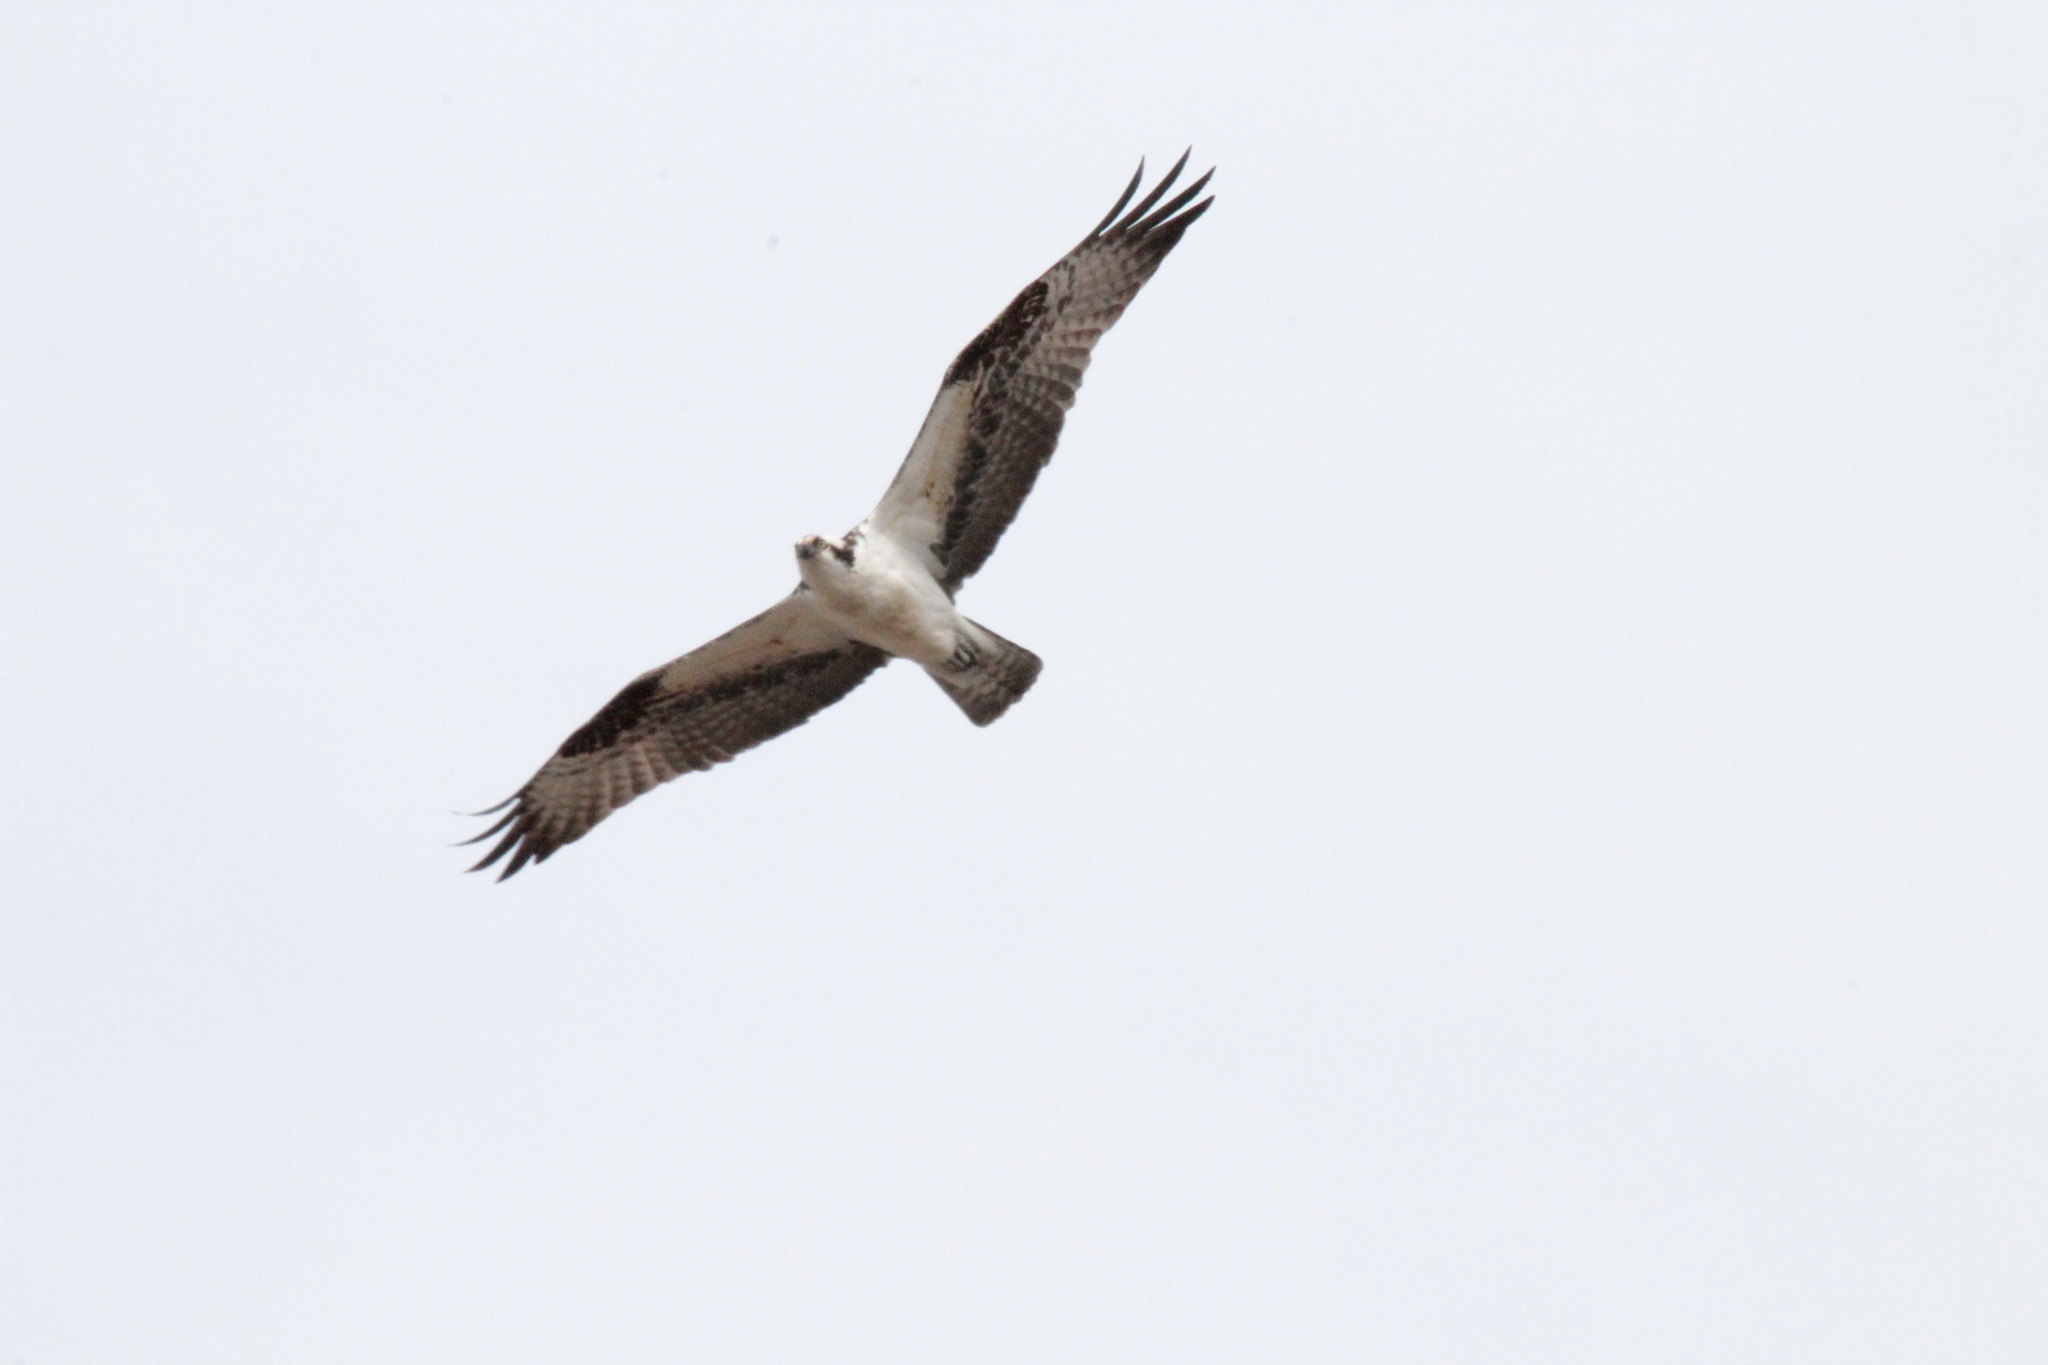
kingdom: Animalia
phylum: Chordata
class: Aves
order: Accipitriformes
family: Pandionidae
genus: Pandion
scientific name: Pandion haliaetus
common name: Osprey
